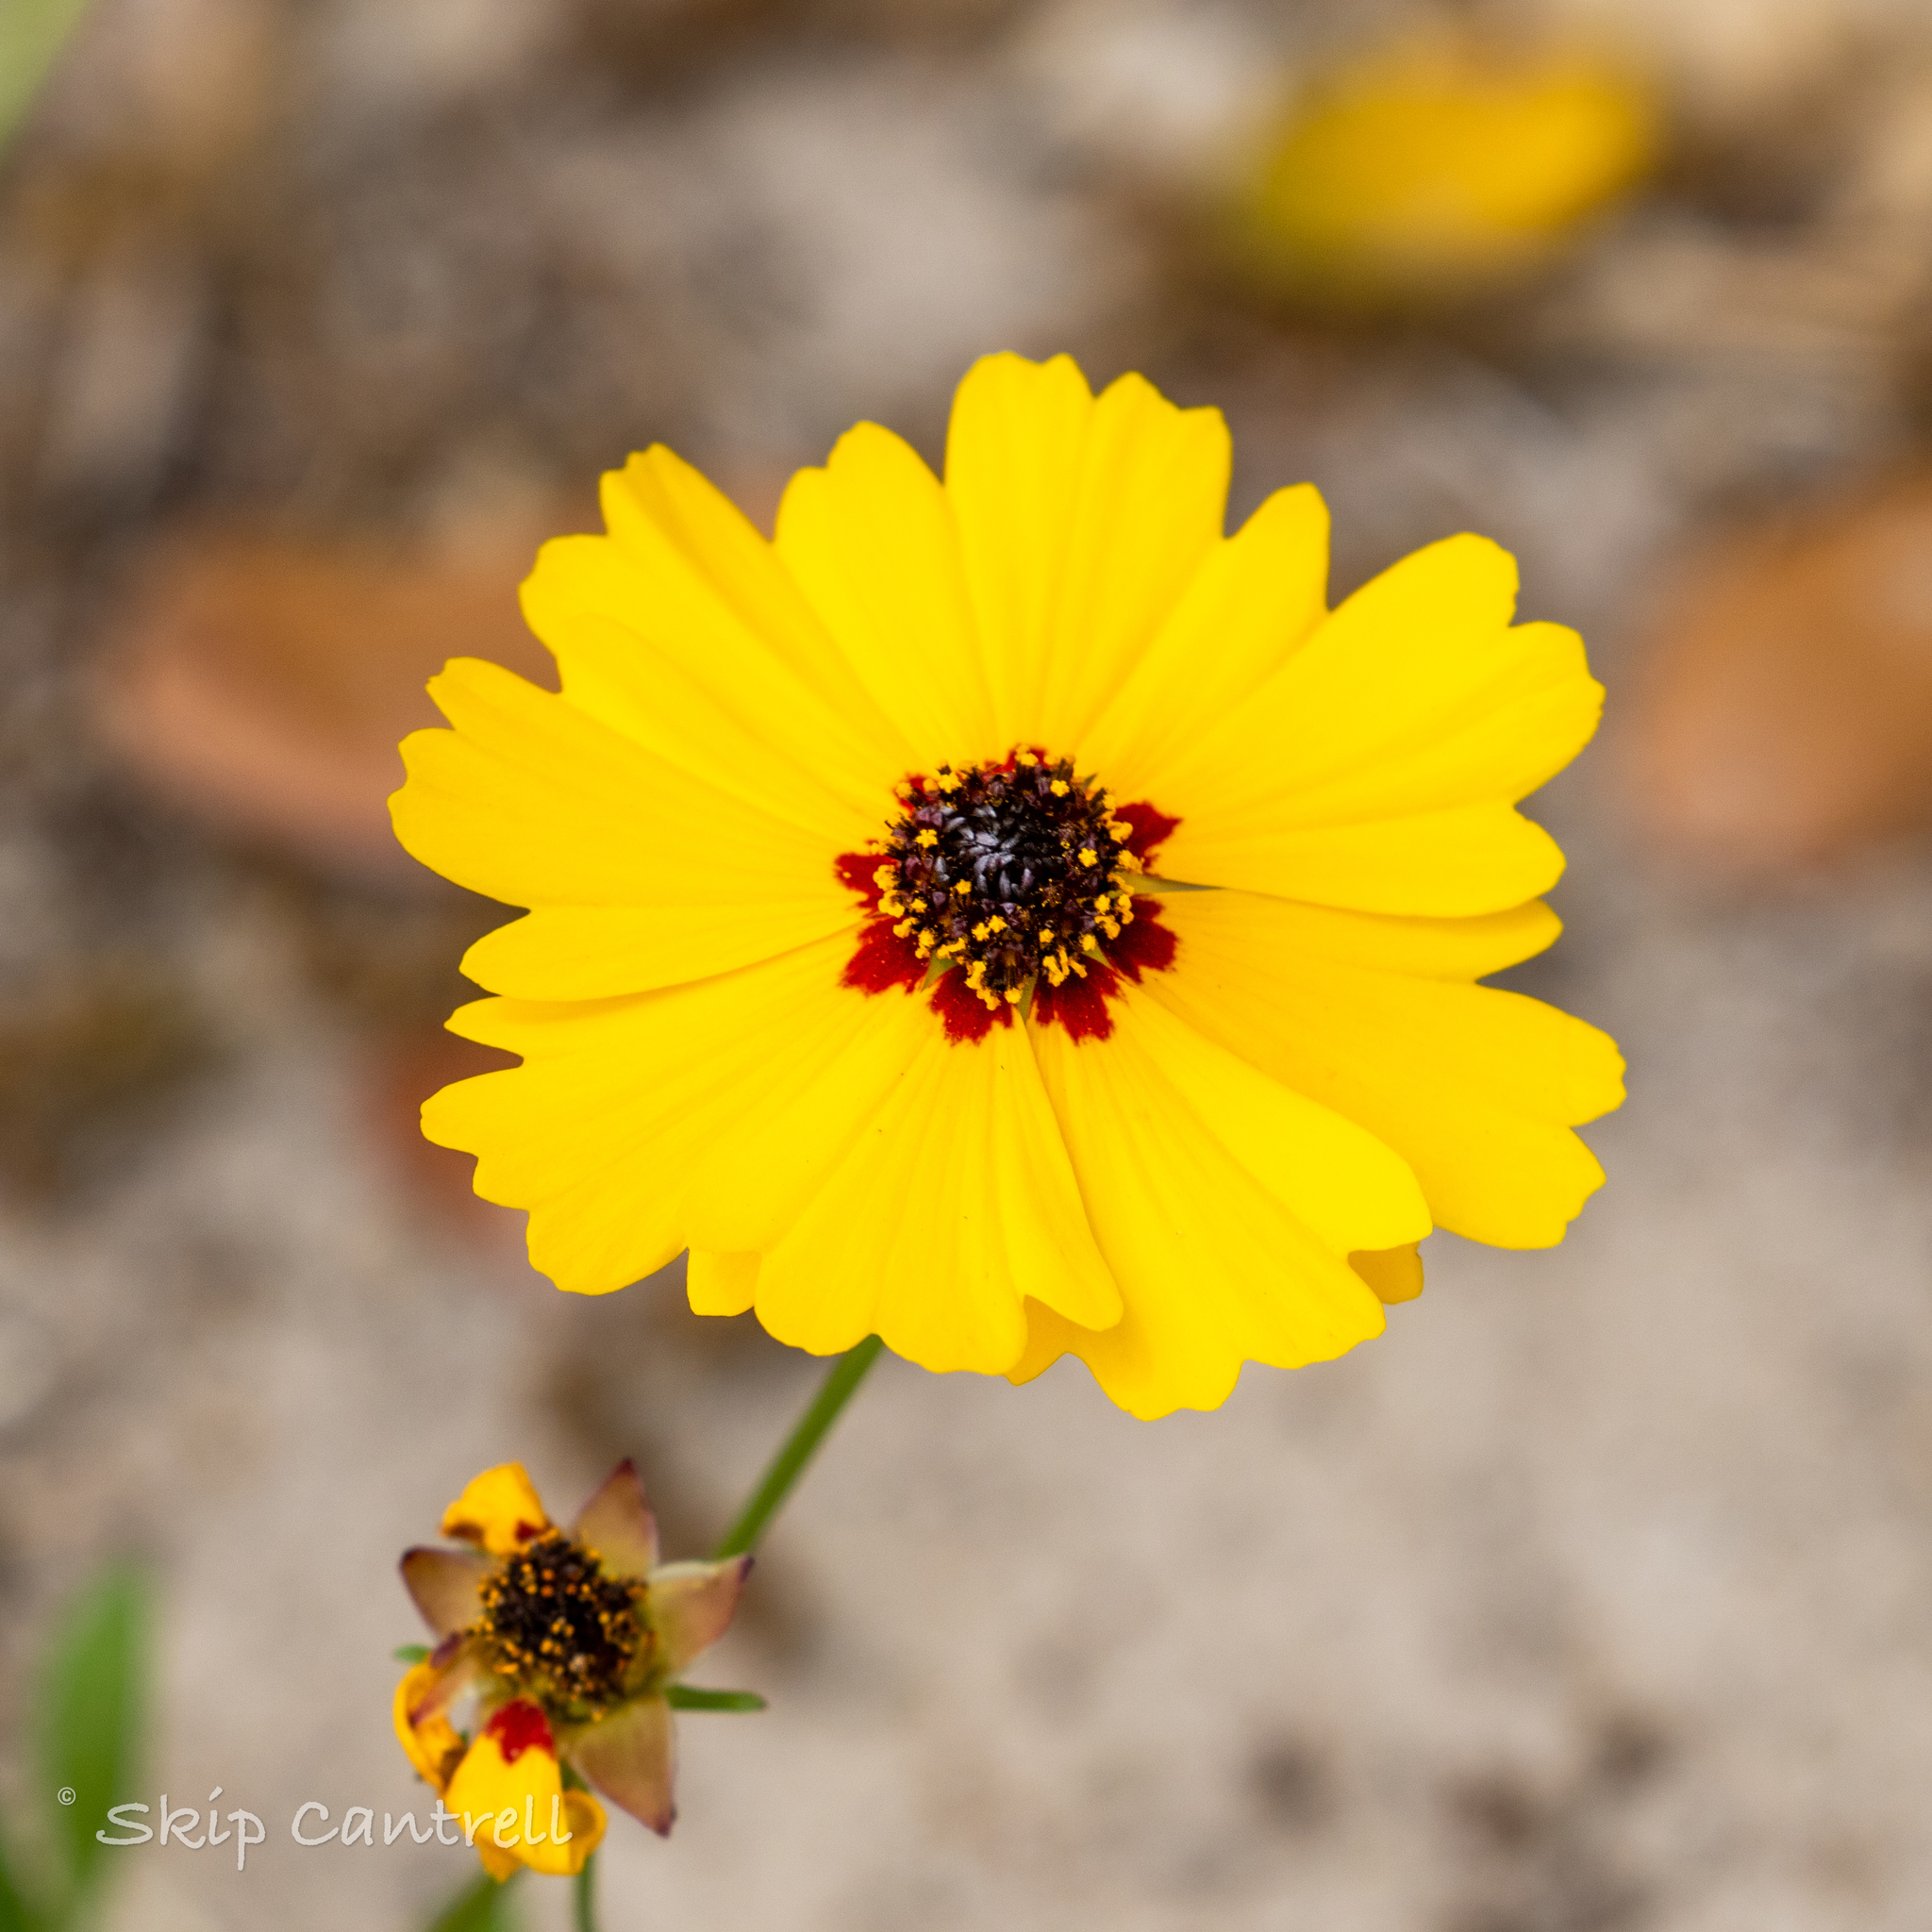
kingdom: Plantae
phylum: Tracheophyta
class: Magnoliopsida
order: Asterales
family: Asteraceae
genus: Coreopsis
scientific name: Coreopsis basalis
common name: Golden-mane coreopsis
